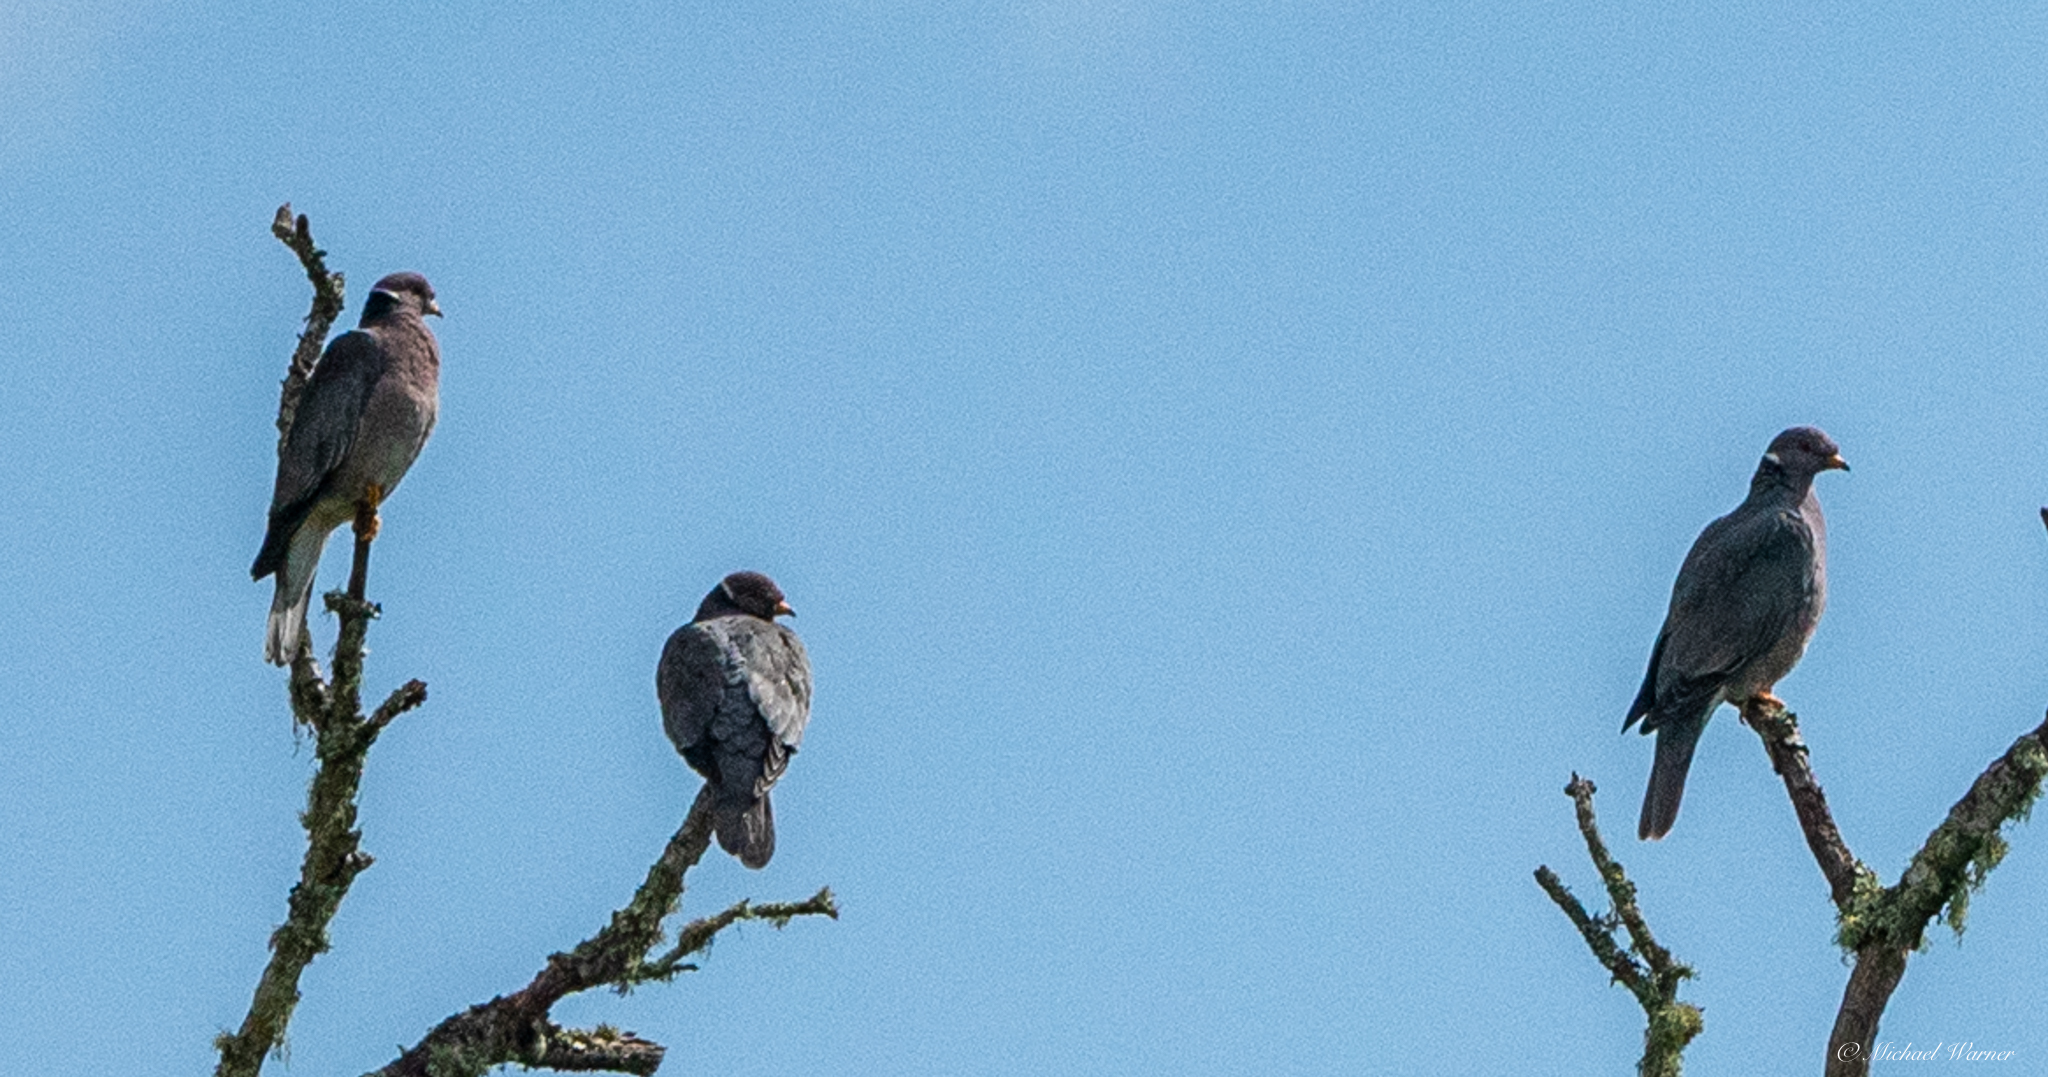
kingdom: Animalia
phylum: Chordata
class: Aves
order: Columbiformes
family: Columbidae
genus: Patagioenas
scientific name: Patagioenas fasciata
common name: Band-tailed pigeon
